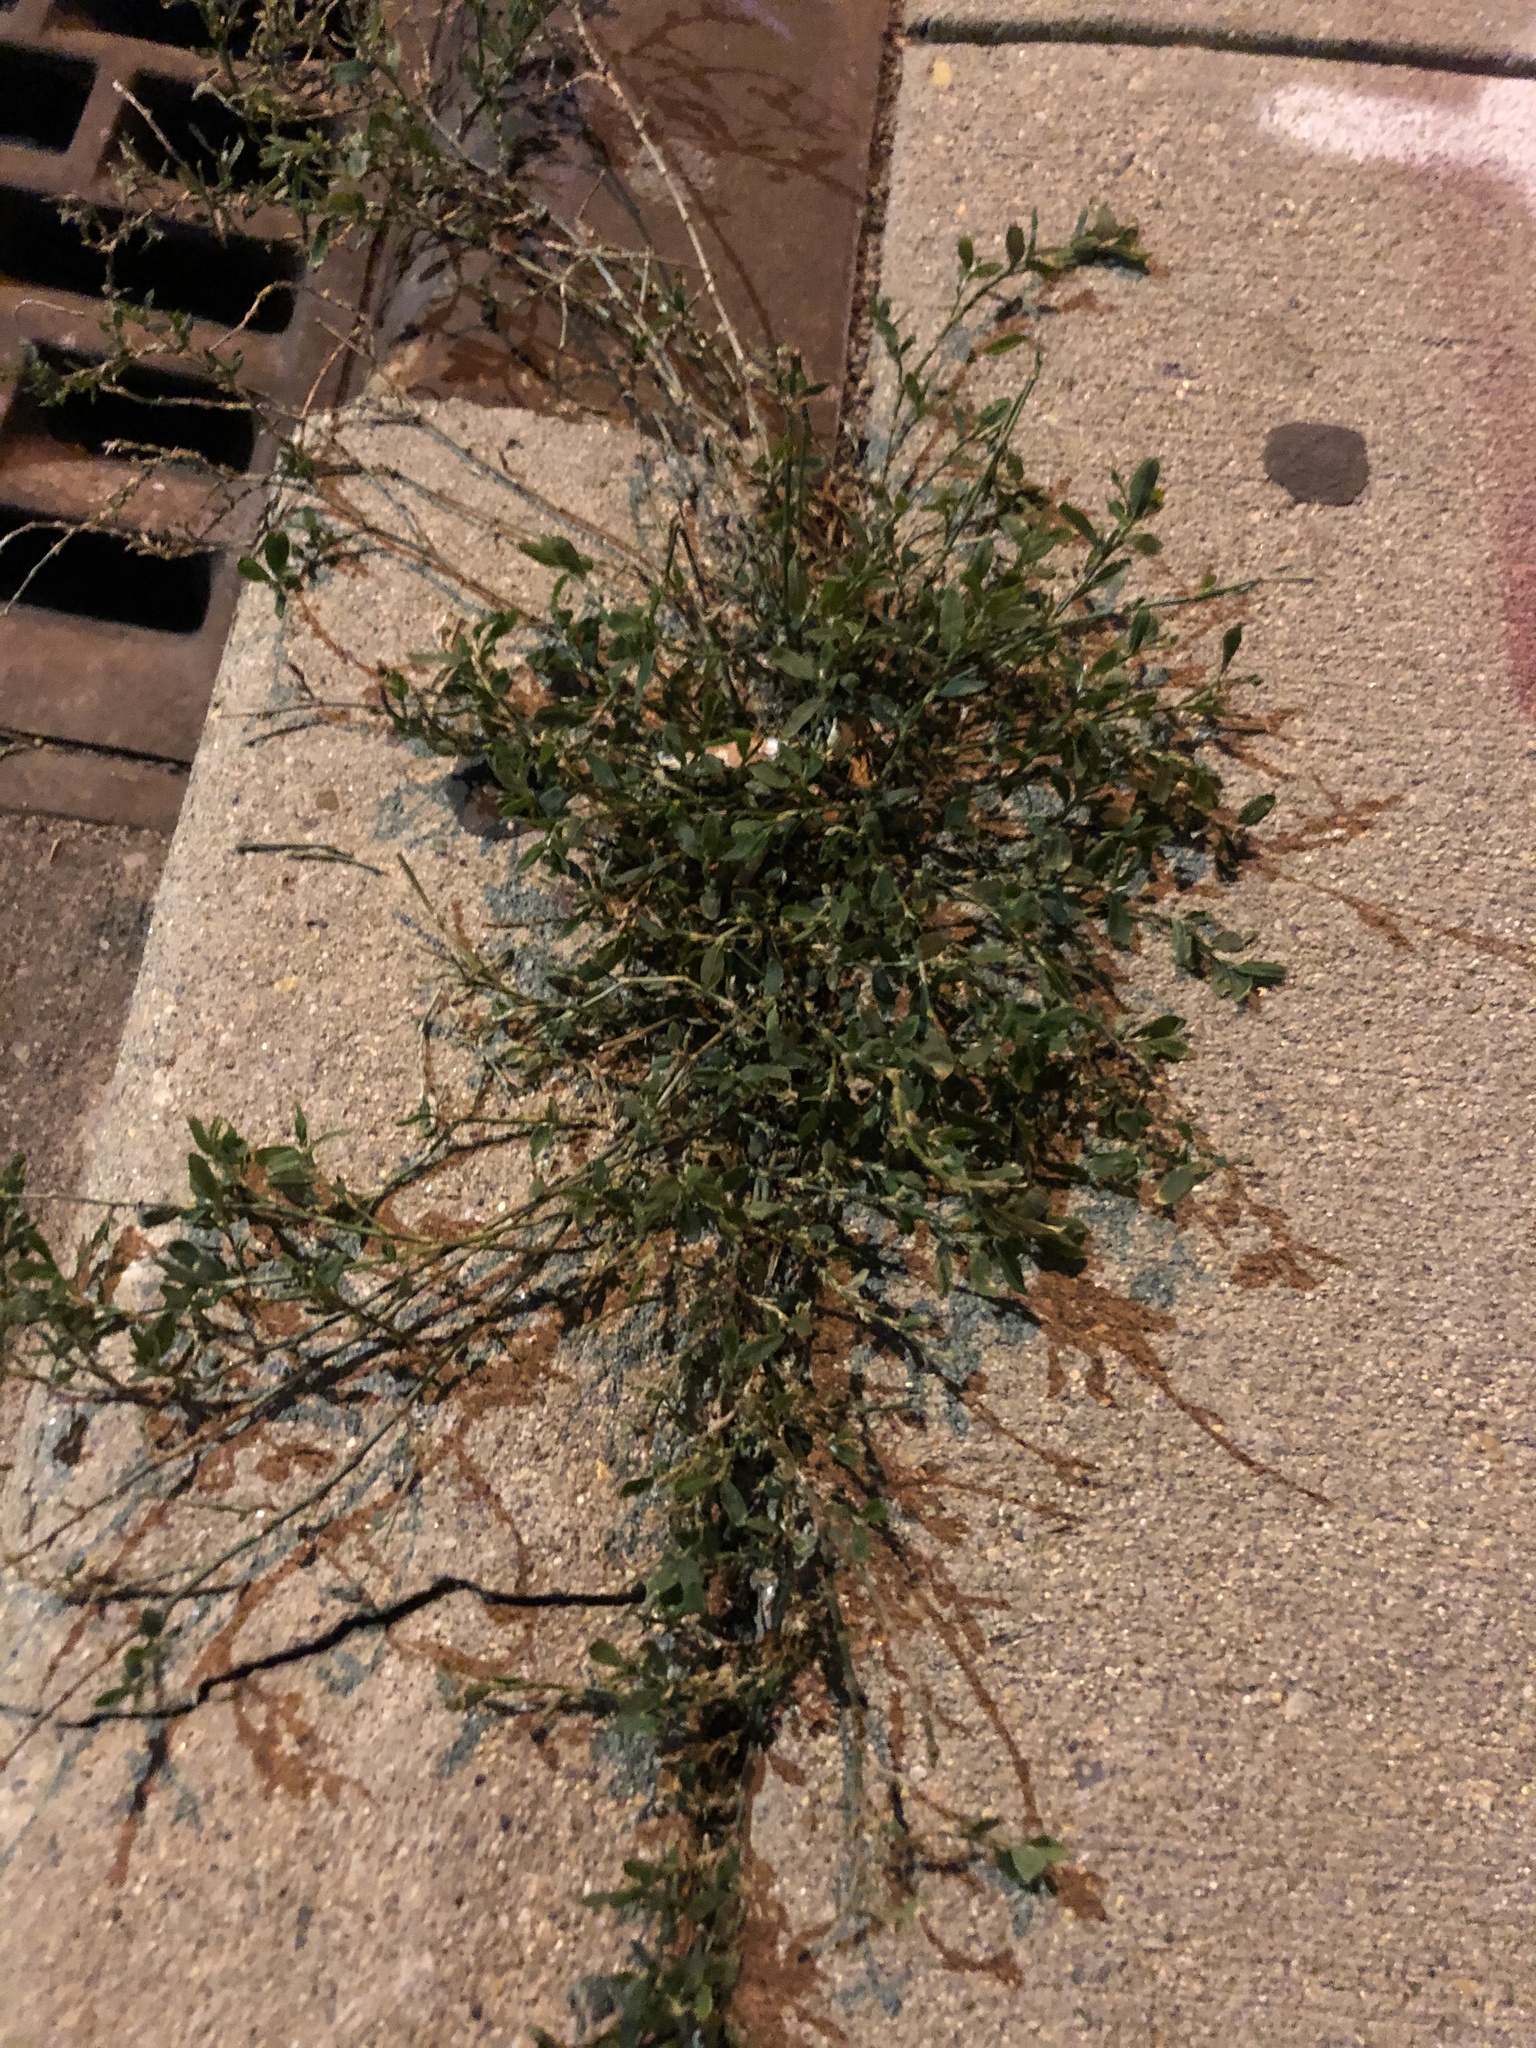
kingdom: Plantae
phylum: Tracheophyta
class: Magnoliopsida
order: Caryophyllales
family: Polygonaceae
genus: Polygonum
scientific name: Polygonum aviculare
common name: Prostrate knotweed
